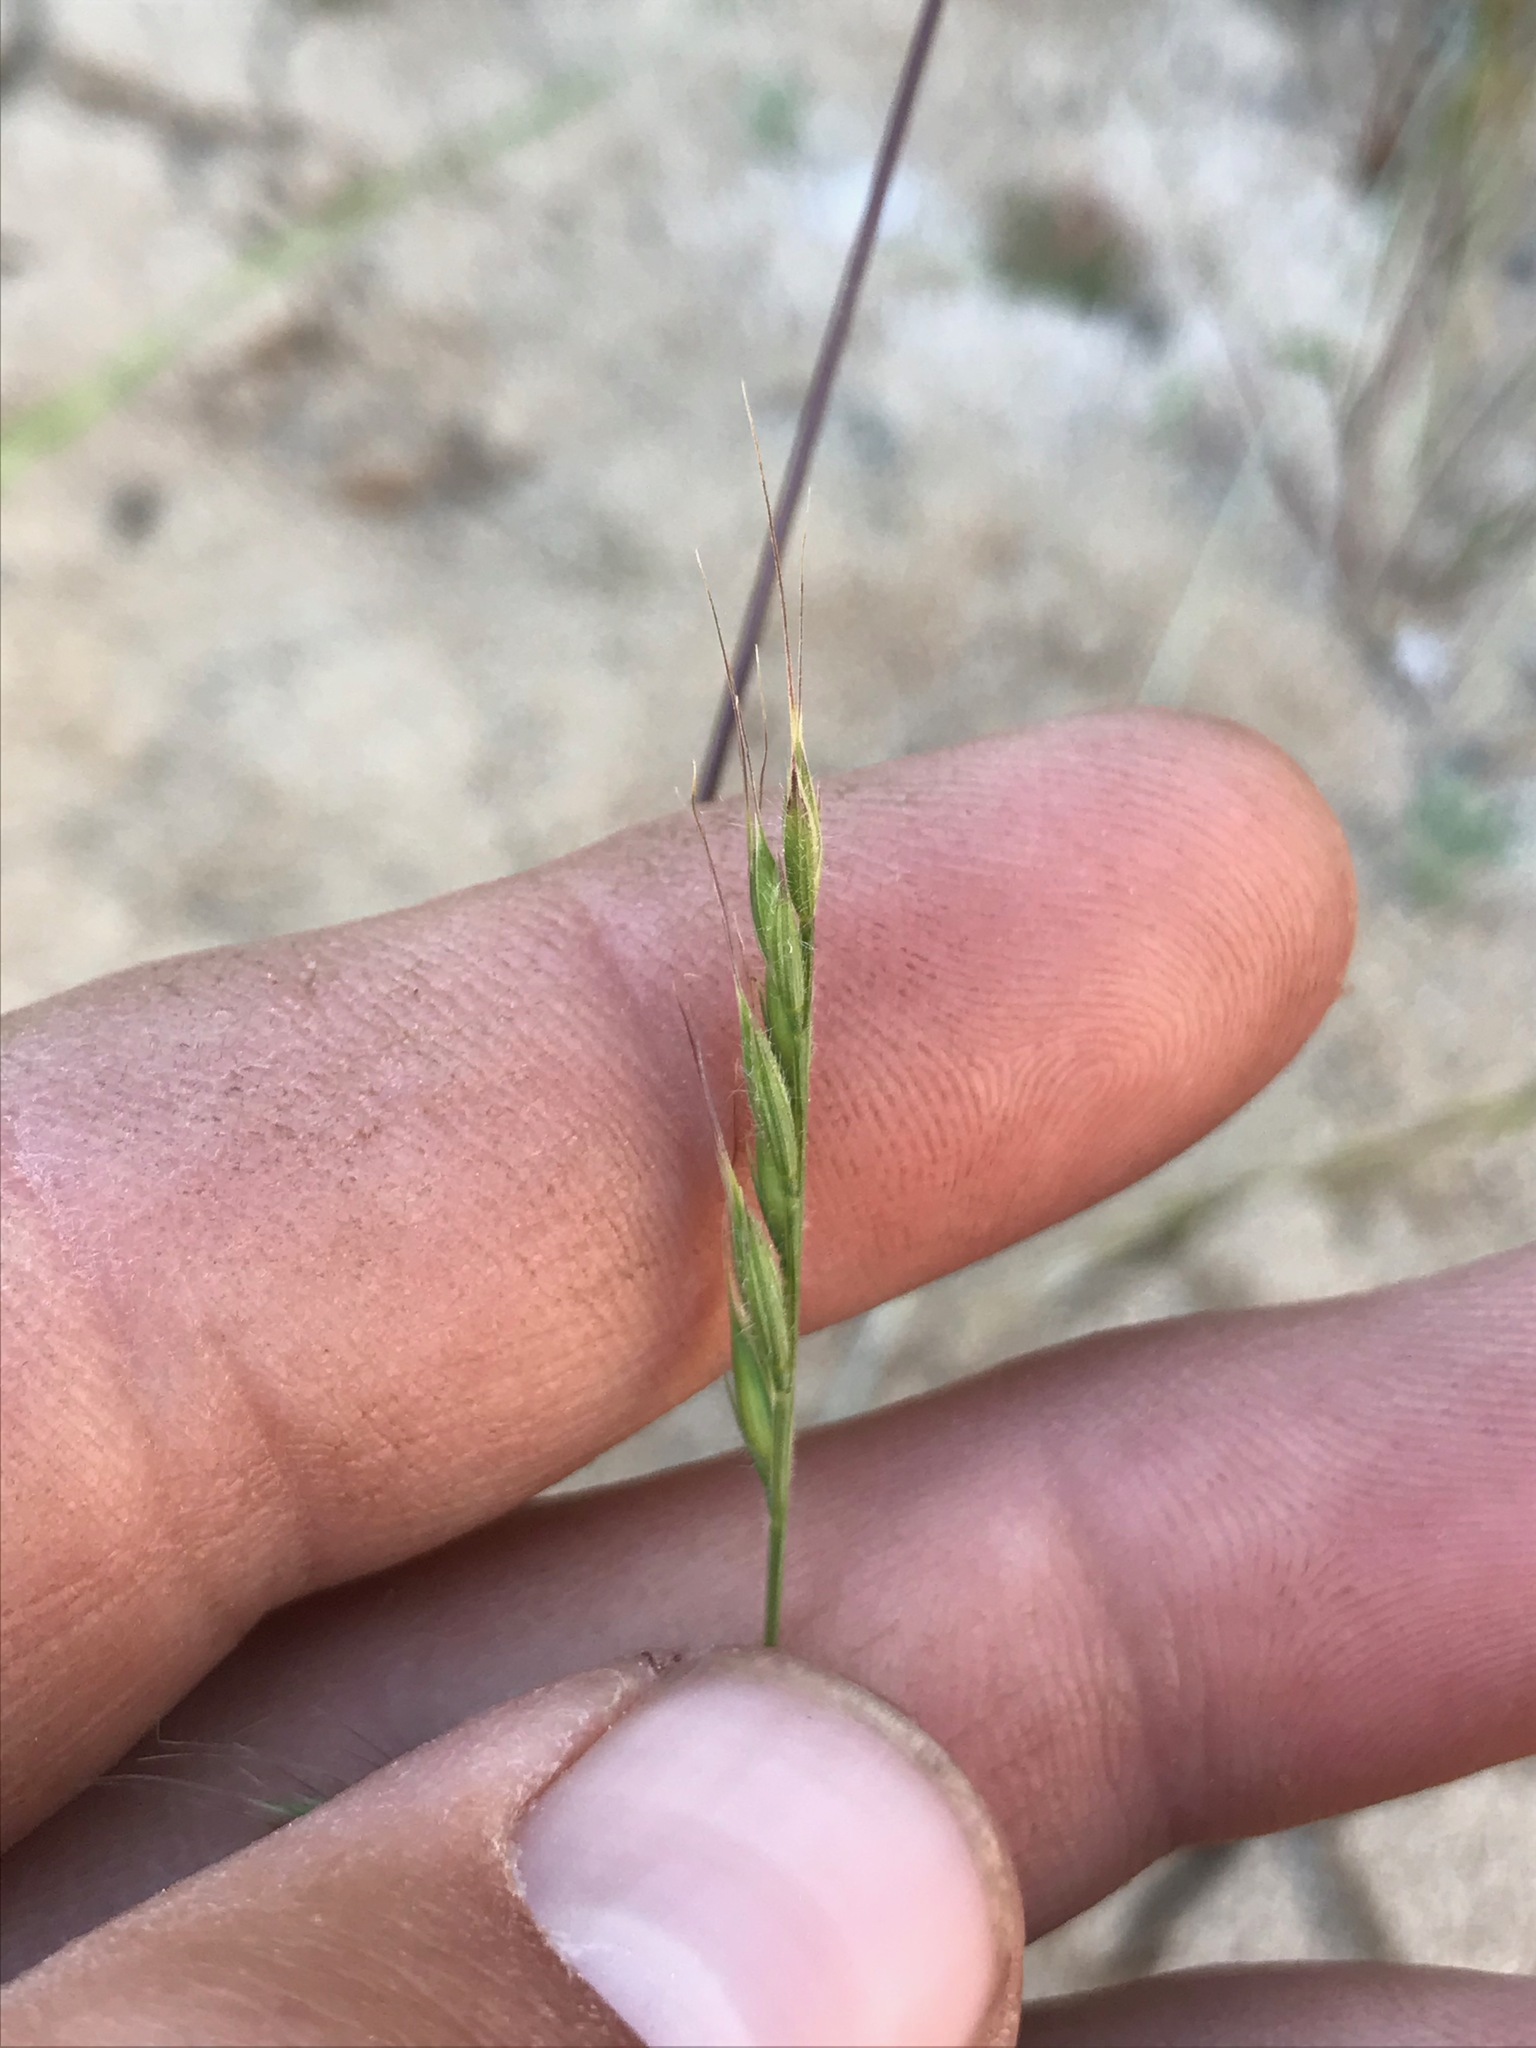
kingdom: Plantae
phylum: Tracheophyta
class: Liliopsida
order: Poales
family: Poaceae
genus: Festuca
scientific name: Festuca microstachys
